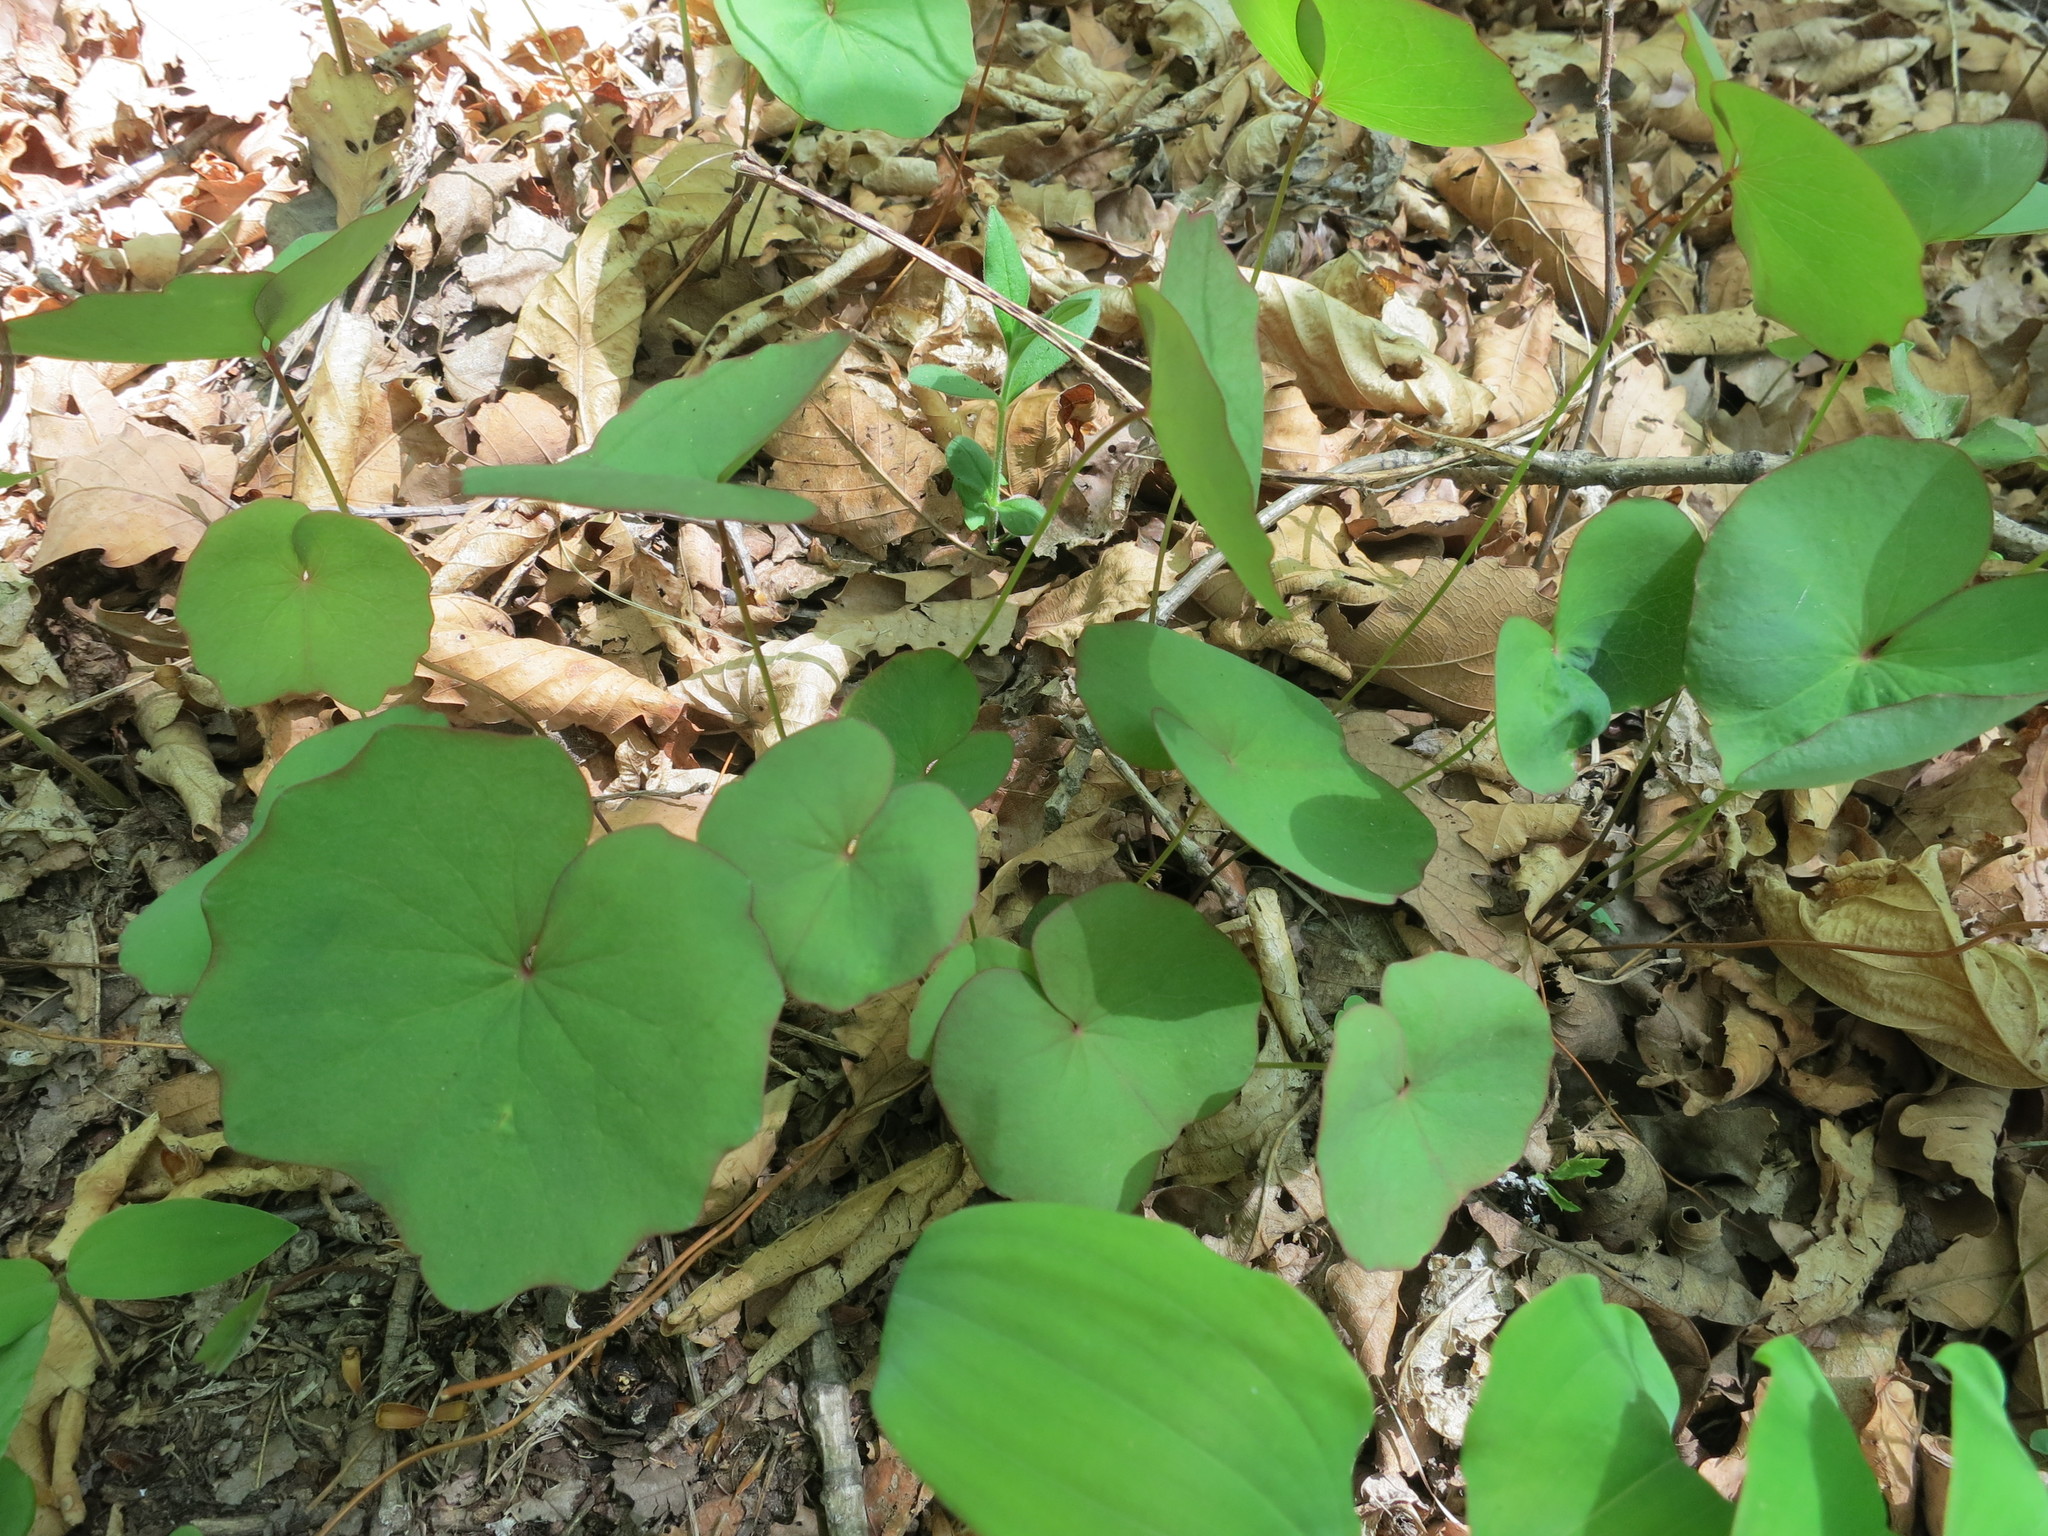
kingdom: Plantae
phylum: Tracheophyta
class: Magnoliopsida
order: Ranunculales
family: Berberidaceae
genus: Plagiorhegma
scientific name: Plagiorhegma dubium
